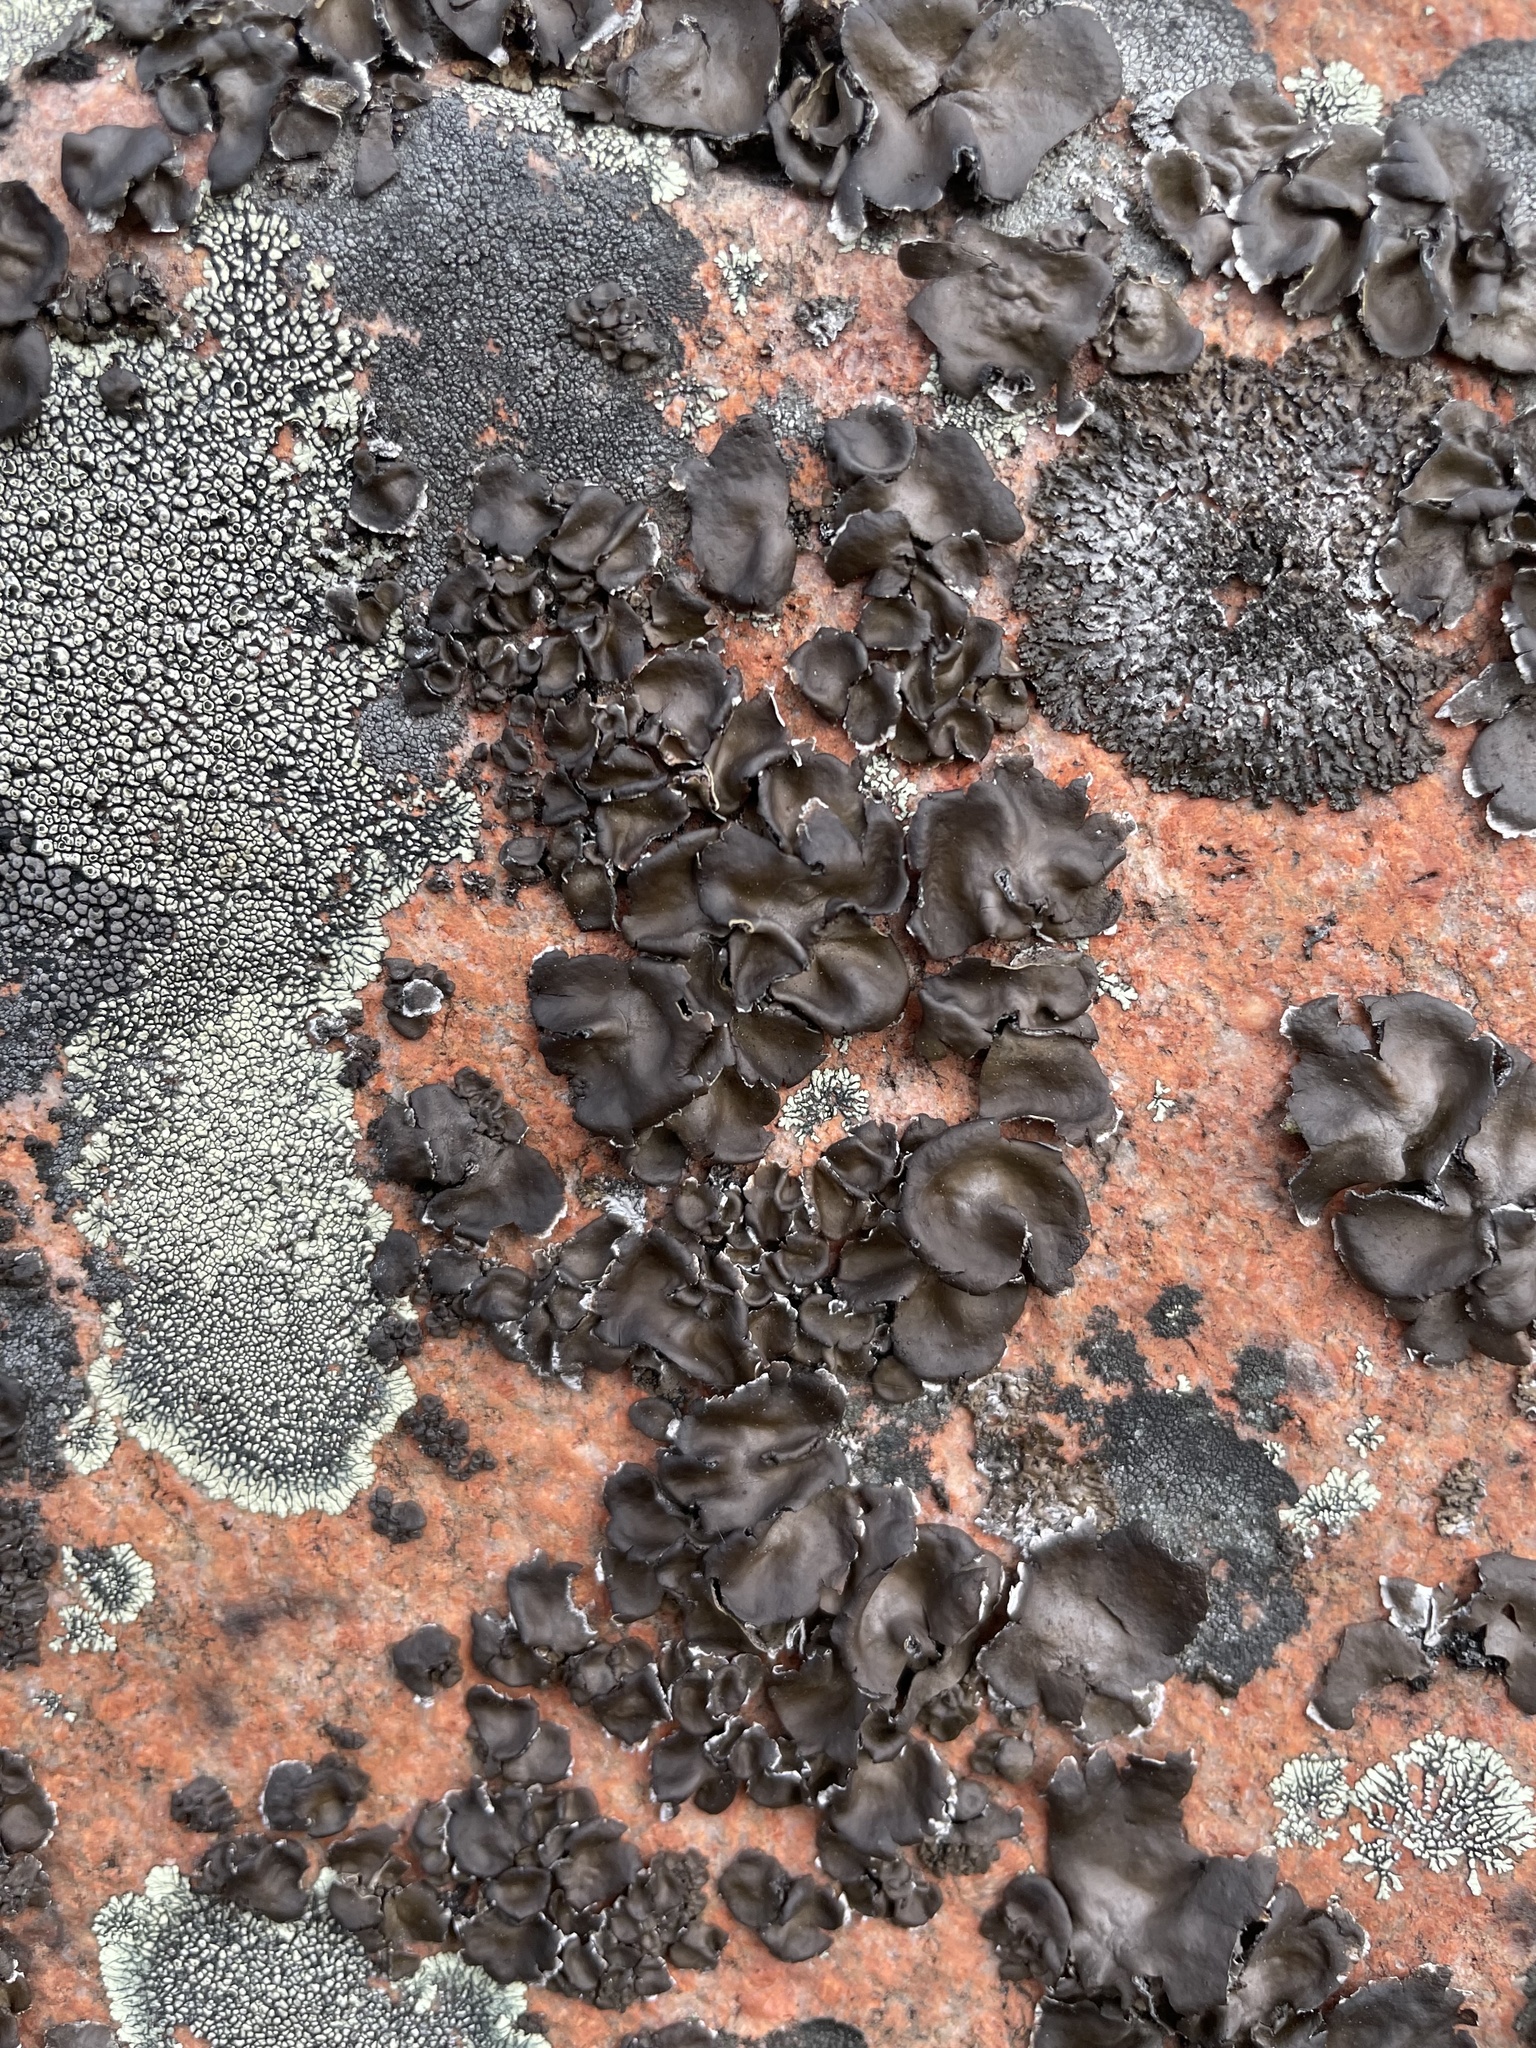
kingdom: Fungi
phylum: Ascomycota
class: Lecanoromycetes
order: Umbilicariales
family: Umbilicariaceae
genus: Umbilicaria
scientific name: Umbilicaria muhlenbergii
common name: Lesser rocktripe
